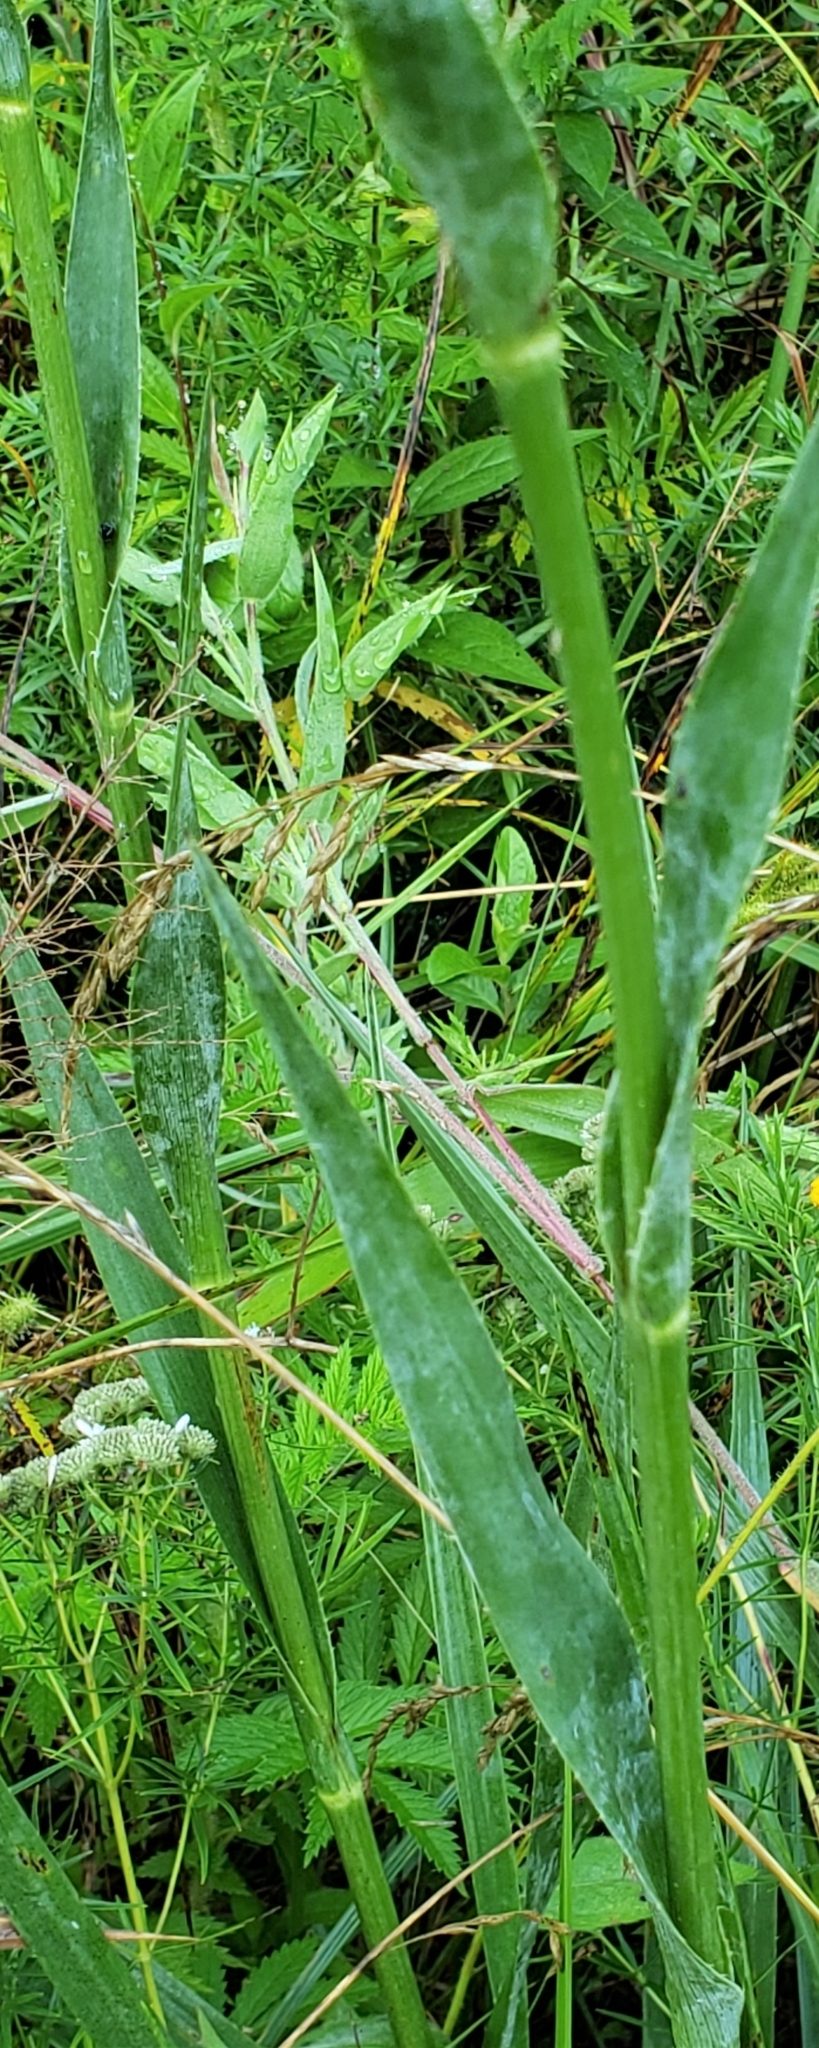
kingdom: Plantae
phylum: Tracheophyta
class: Magnoliopsida
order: Apiales
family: Apiaceae
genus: Eryngium
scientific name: Eryngium yuccifolium
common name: Button eryngo
